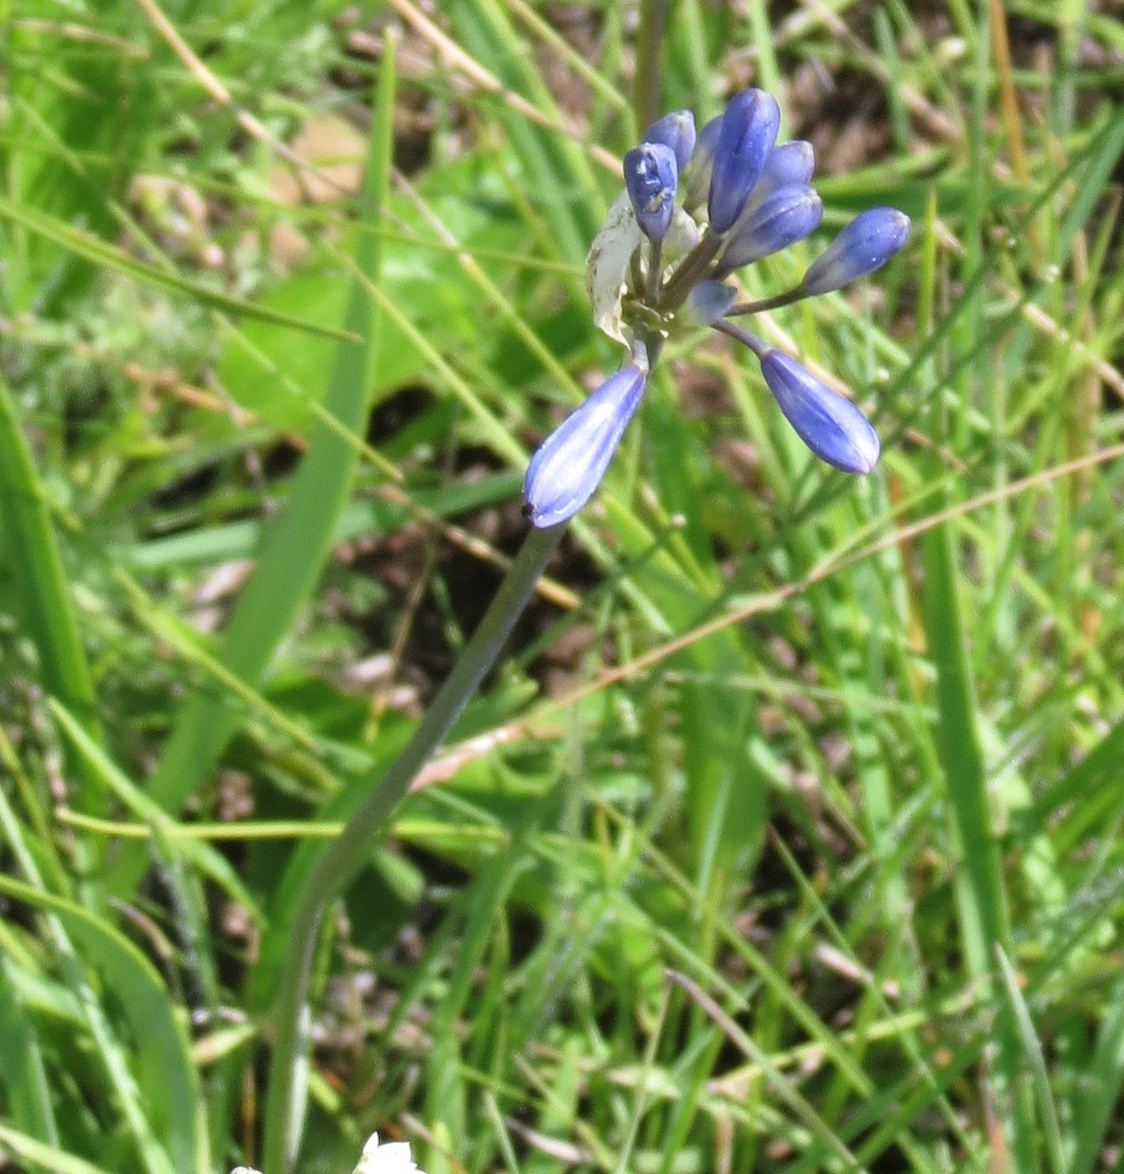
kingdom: Plantae
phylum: Tracheophyta
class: Liliopsida
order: Asparagales
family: Amaryllidaceae
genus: Agapanthus
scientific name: Agapanthus campanulatus
